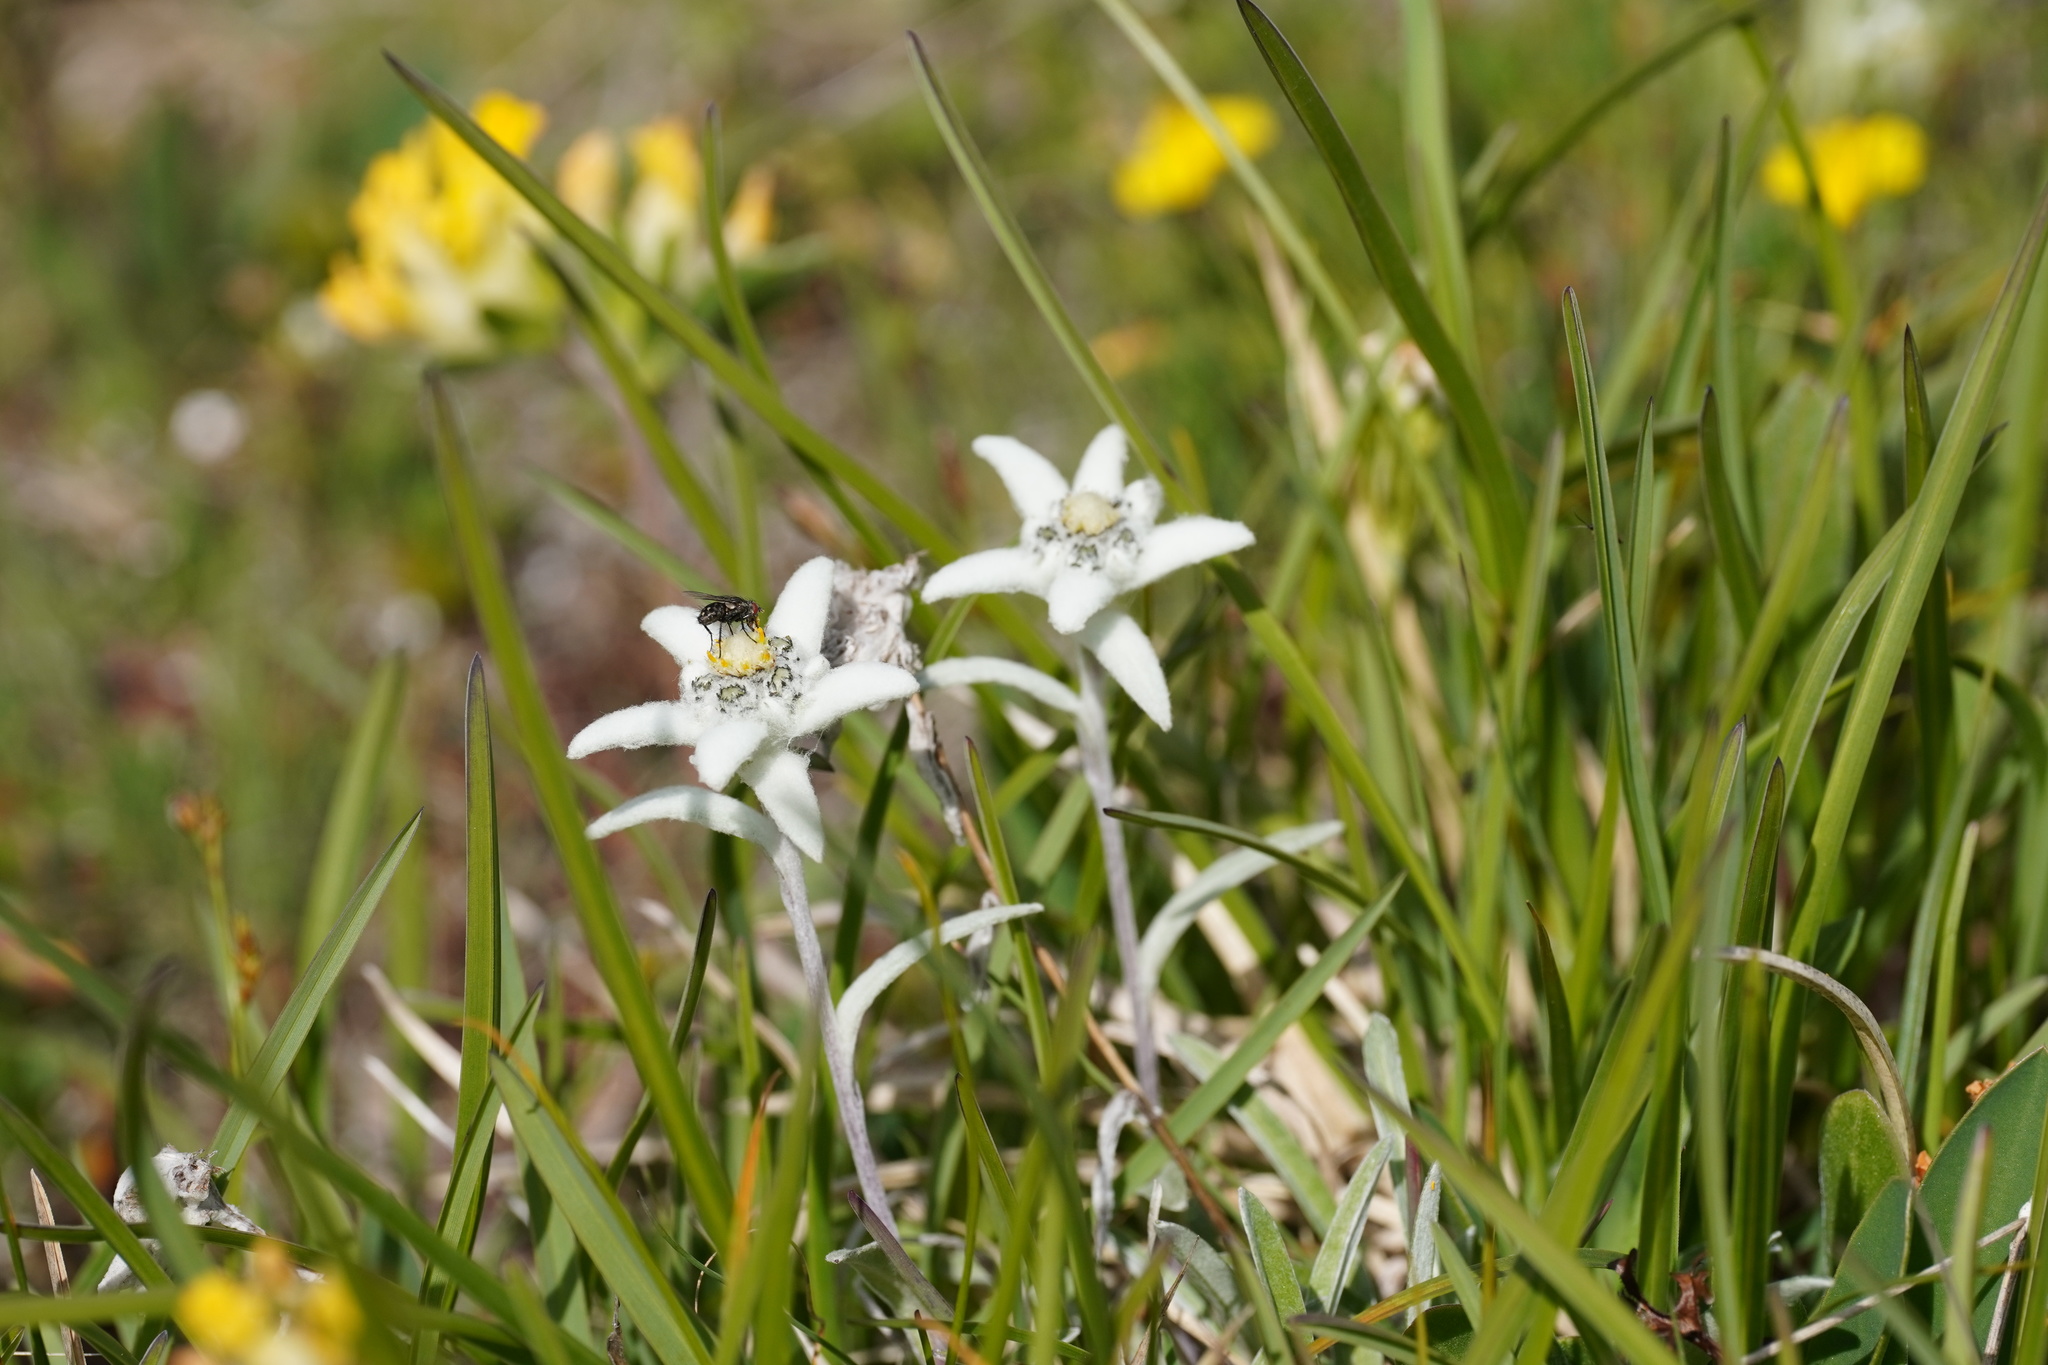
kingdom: Plantae
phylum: Tracheophyta
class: Magnoliopsida
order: Asterales
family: Asteraceae
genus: Leontopodium
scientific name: Leontopodium nivale
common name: Edelweiss
